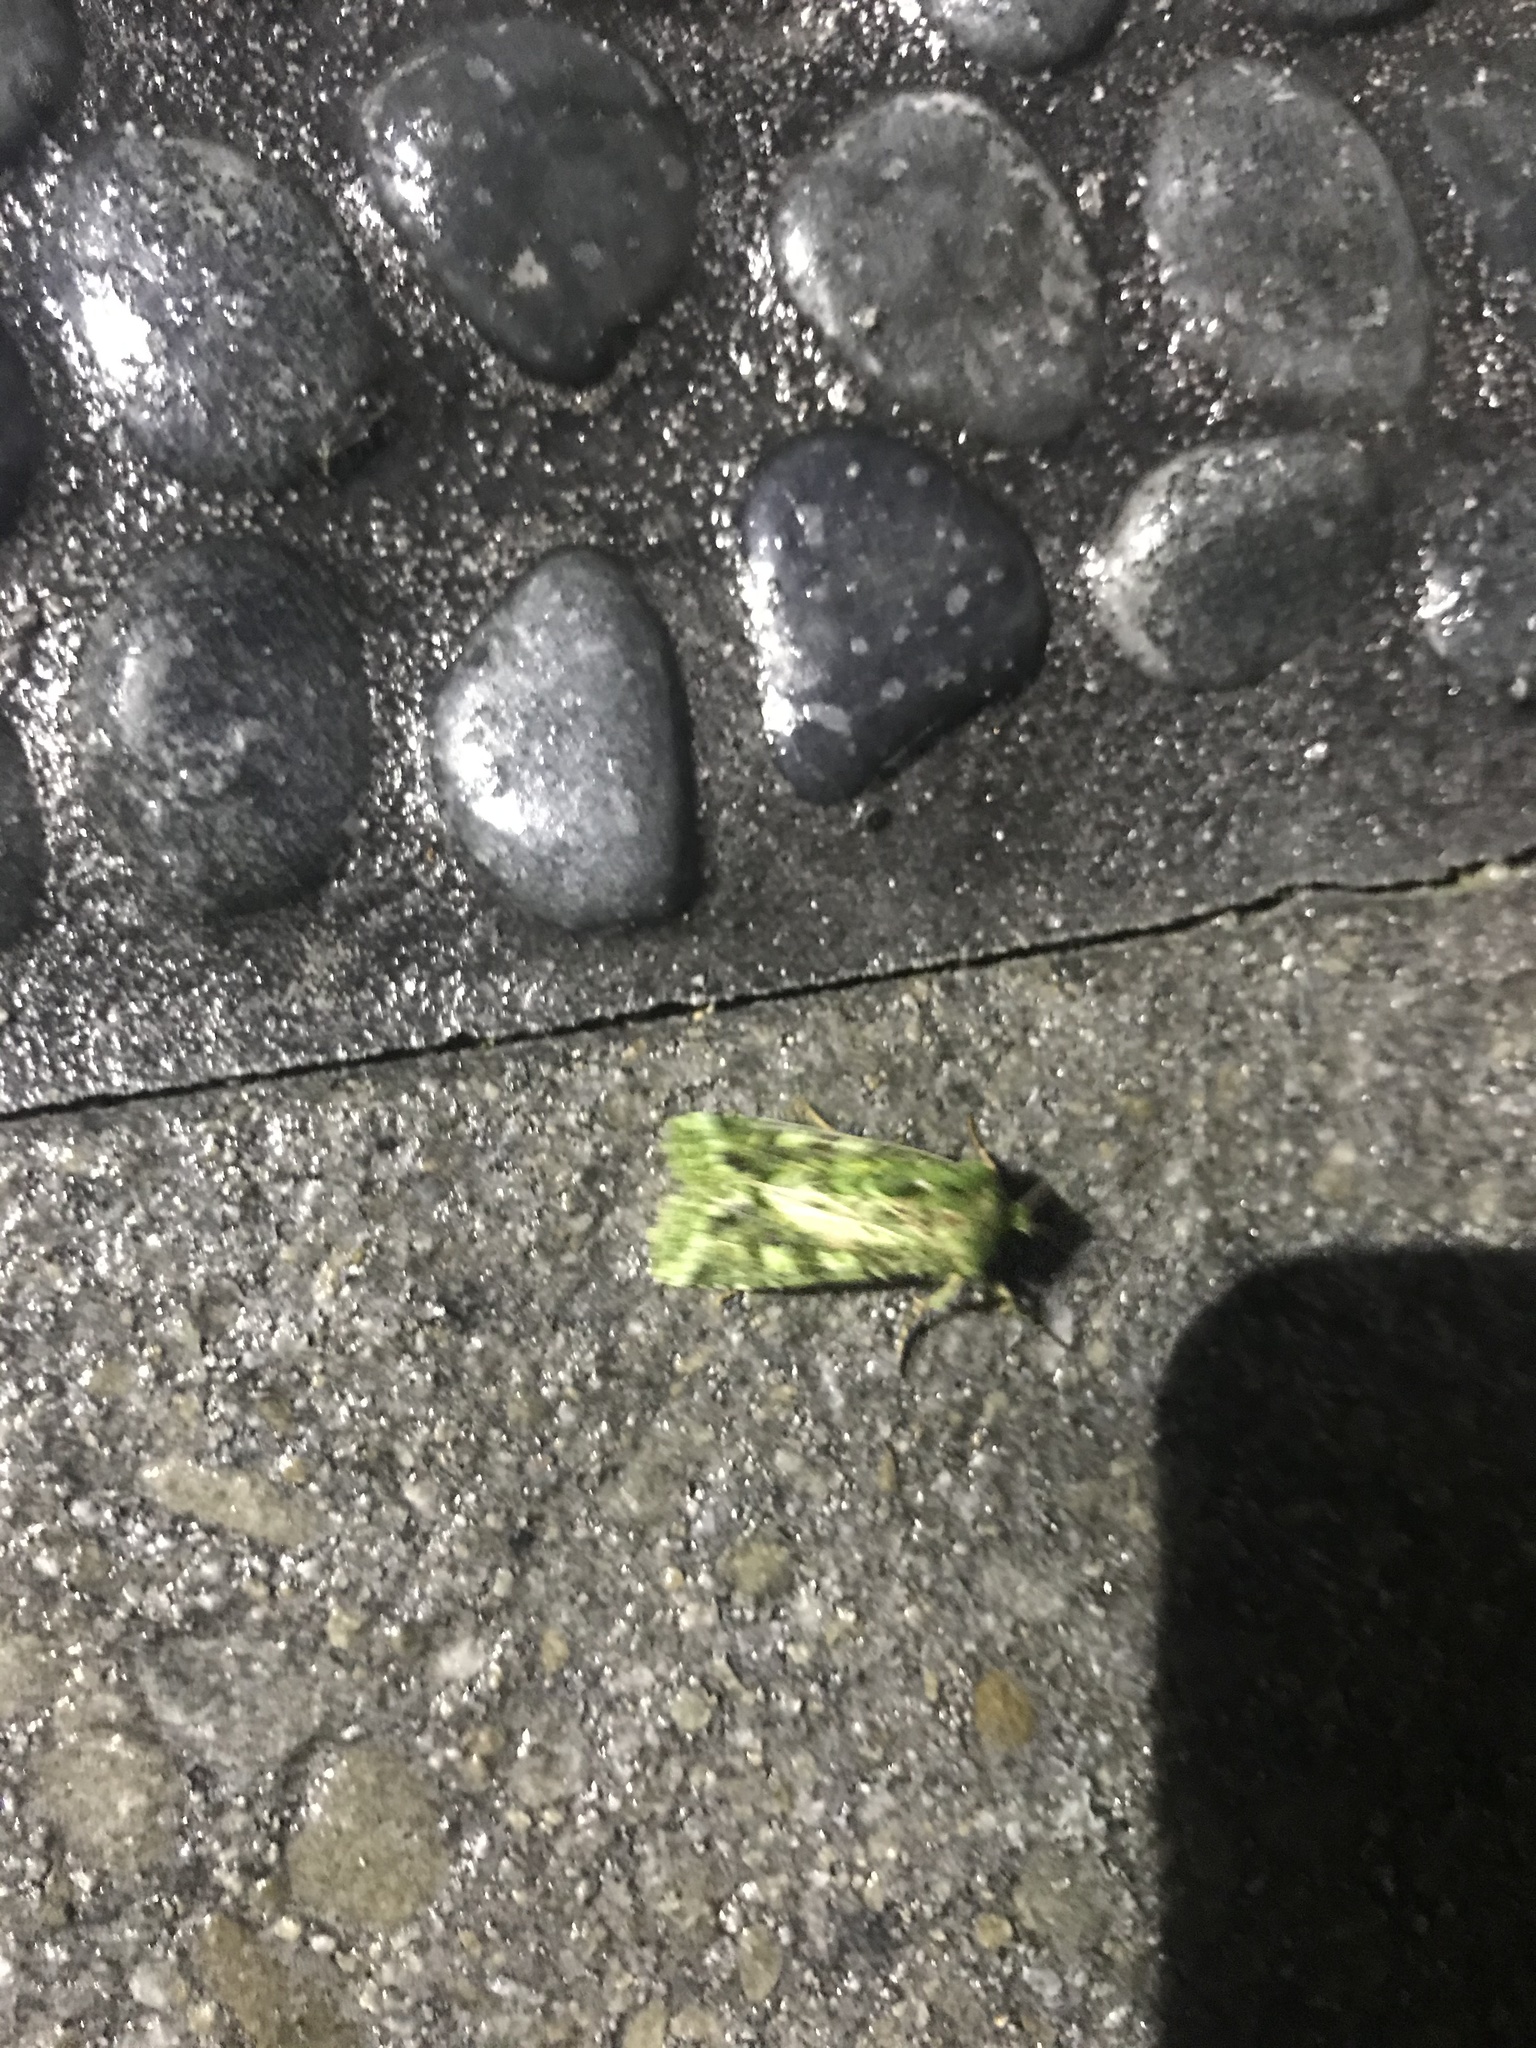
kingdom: Animalia
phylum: Arthropoda
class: Insecta
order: Lepidoptera
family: Noctuidae
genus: Feredayia
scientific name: Feredayia grammosa
